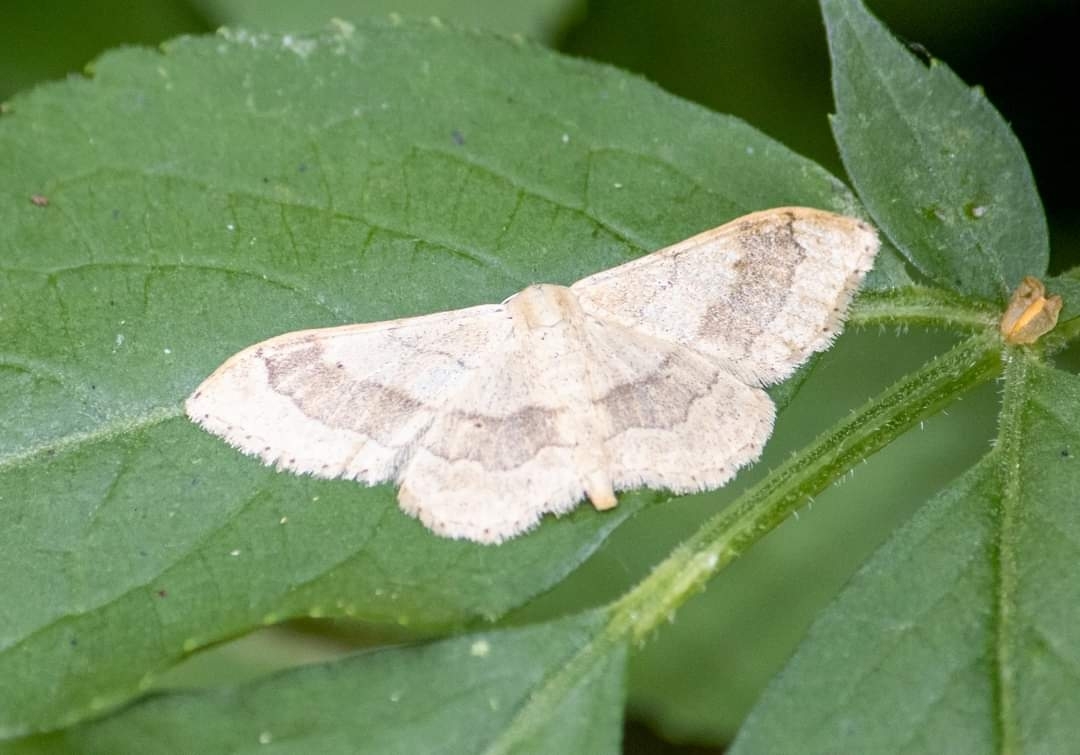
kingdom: Animalia
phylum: Arthropoda
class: Insecta
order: Lepidoptera
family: Geometridae
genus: Idaea
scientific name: Idaea aversata
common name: Riband wave
